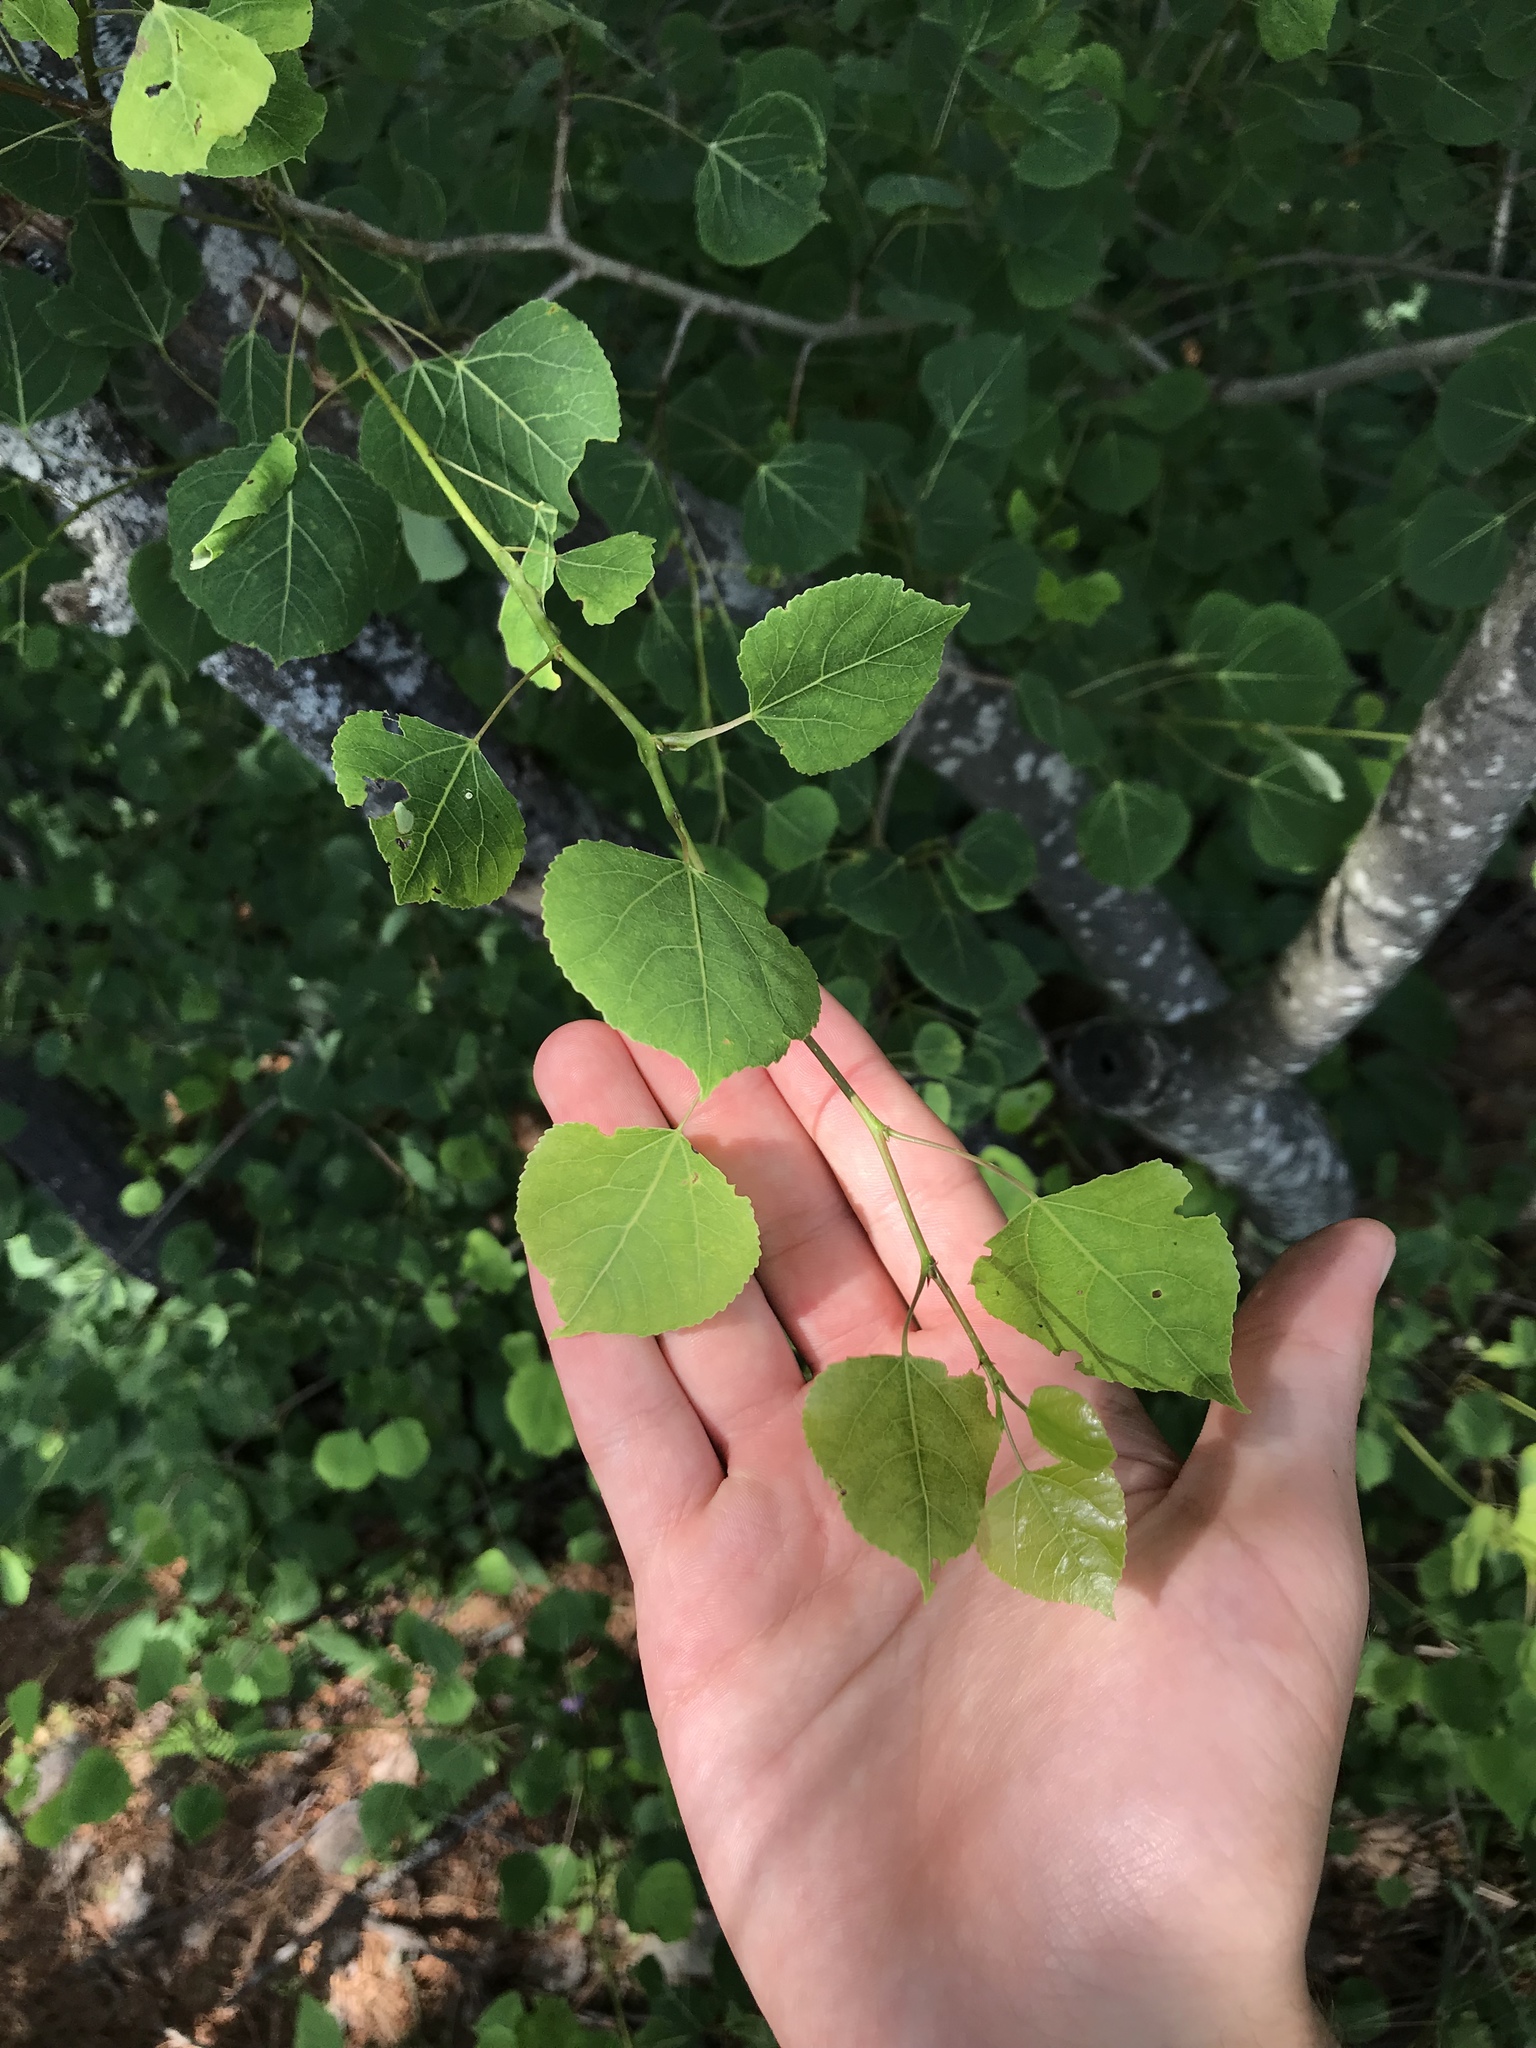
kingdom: Plantae
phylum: Tracheophyta
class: Magnoliopsida
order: Malpighiales
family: Salicaceae
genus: Populus
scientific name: Populus tremuloides
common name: Quaking aspen
